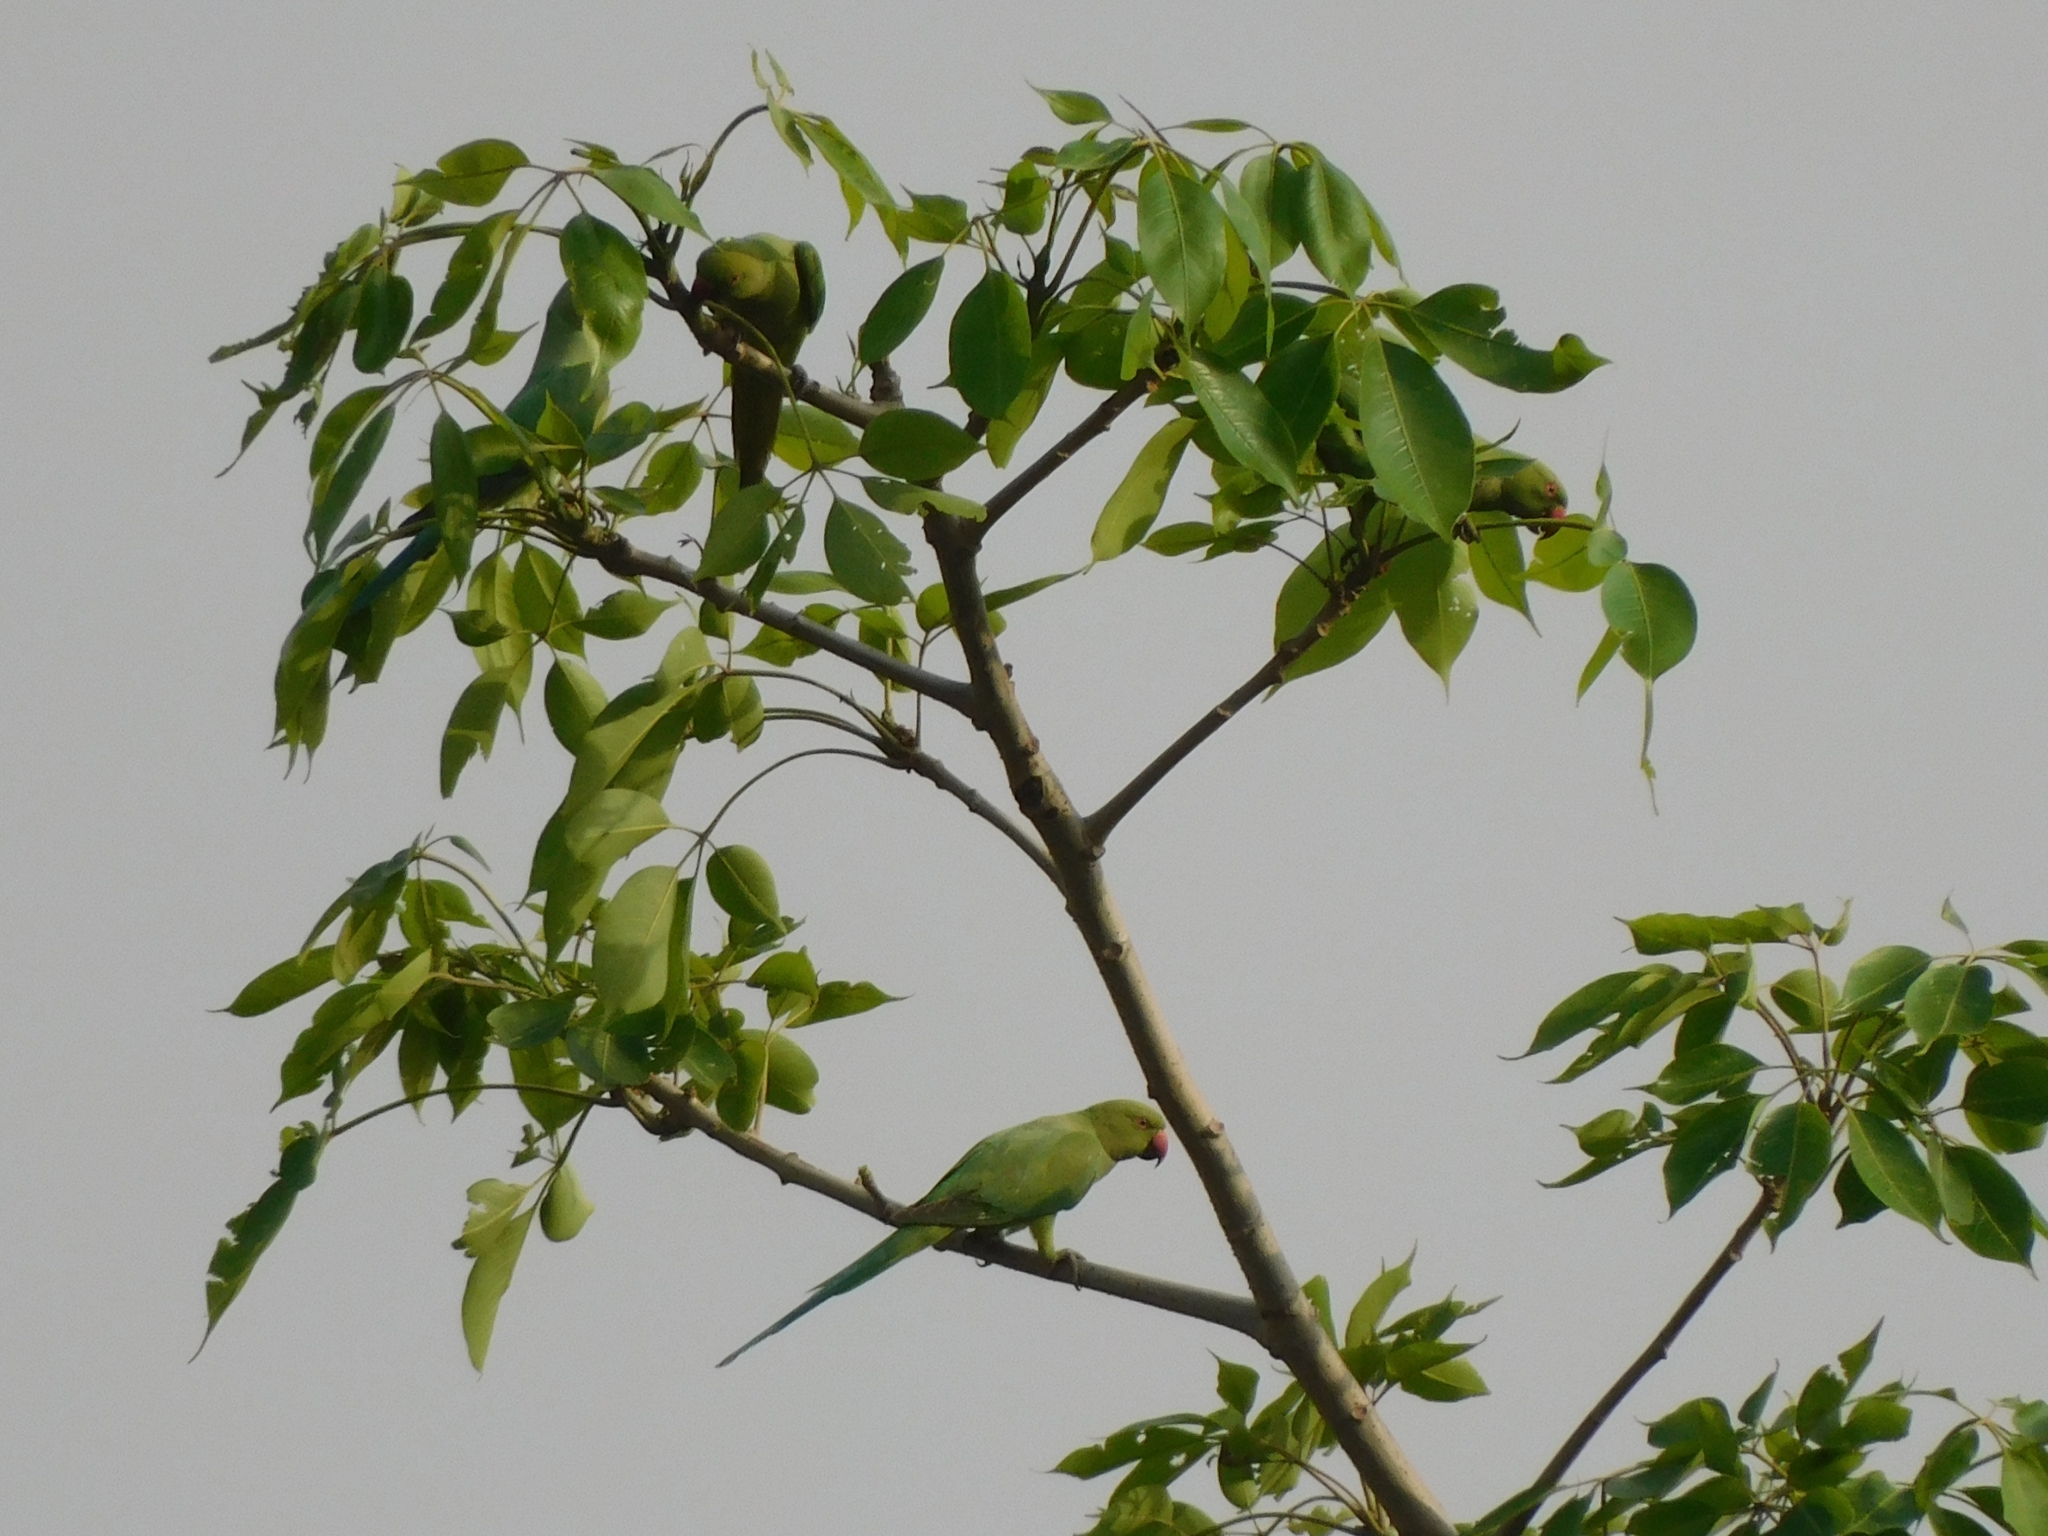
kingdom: Animalia
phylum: Chordata
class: Aves
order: Psittaciformes
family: Psittacidae
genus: Psittacula
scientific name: Psittacula krameri
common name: Rose-ringed parakeet
